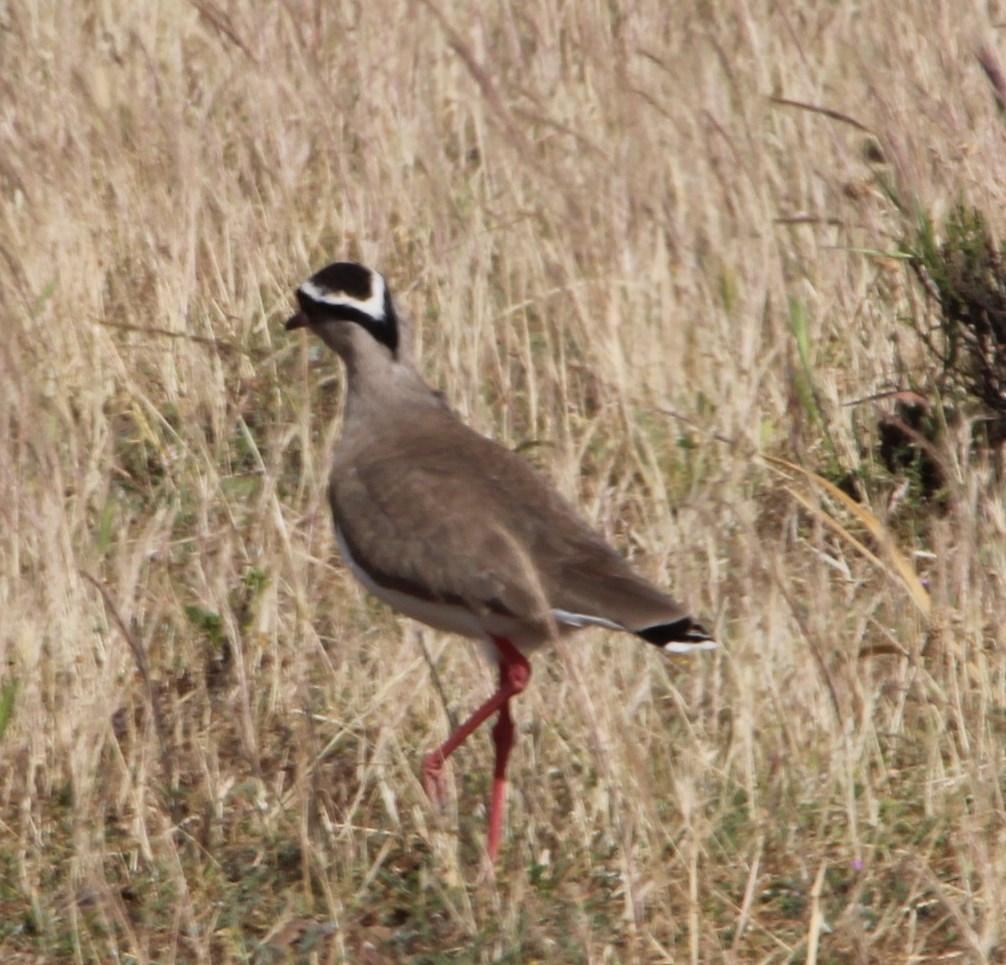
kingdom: Animalia
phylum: Chordata
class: Aves
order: Charadriiformes
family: Charadriidae
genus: Vanellus
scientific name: Vanellus coronatus
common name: Crowned lapwing
